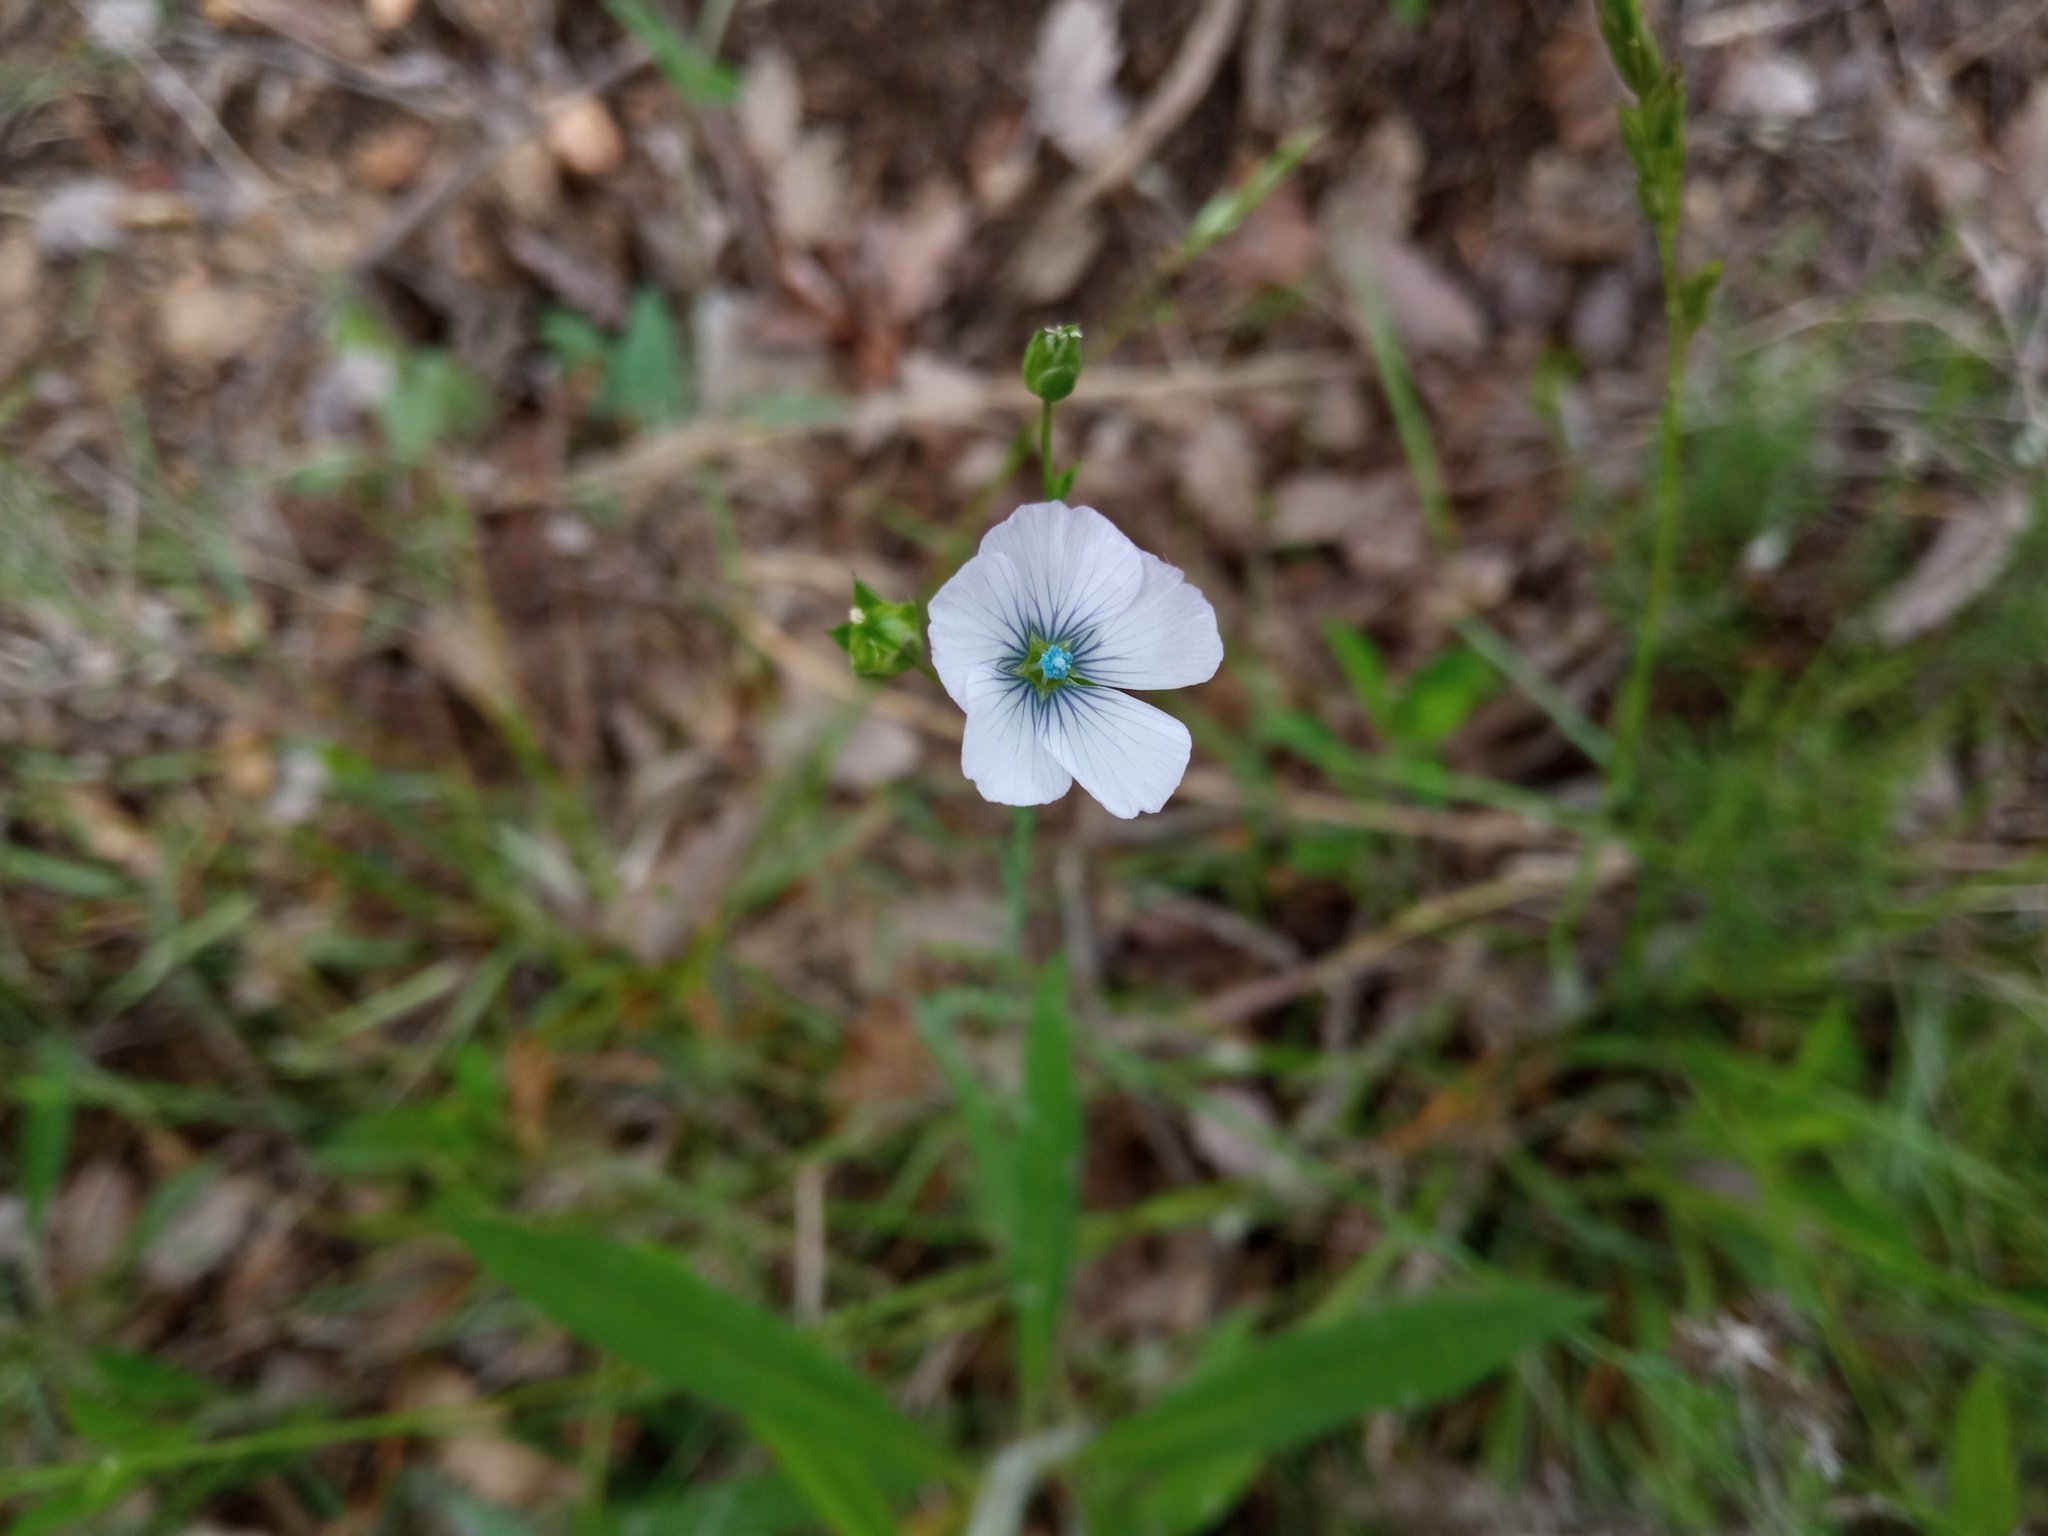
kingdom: Plantae
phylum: Tracheophyta
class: Magnoliopsida
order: Malpighiales
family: Linaceae
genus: Linum
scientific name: Linum bienne
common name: Pale flax
